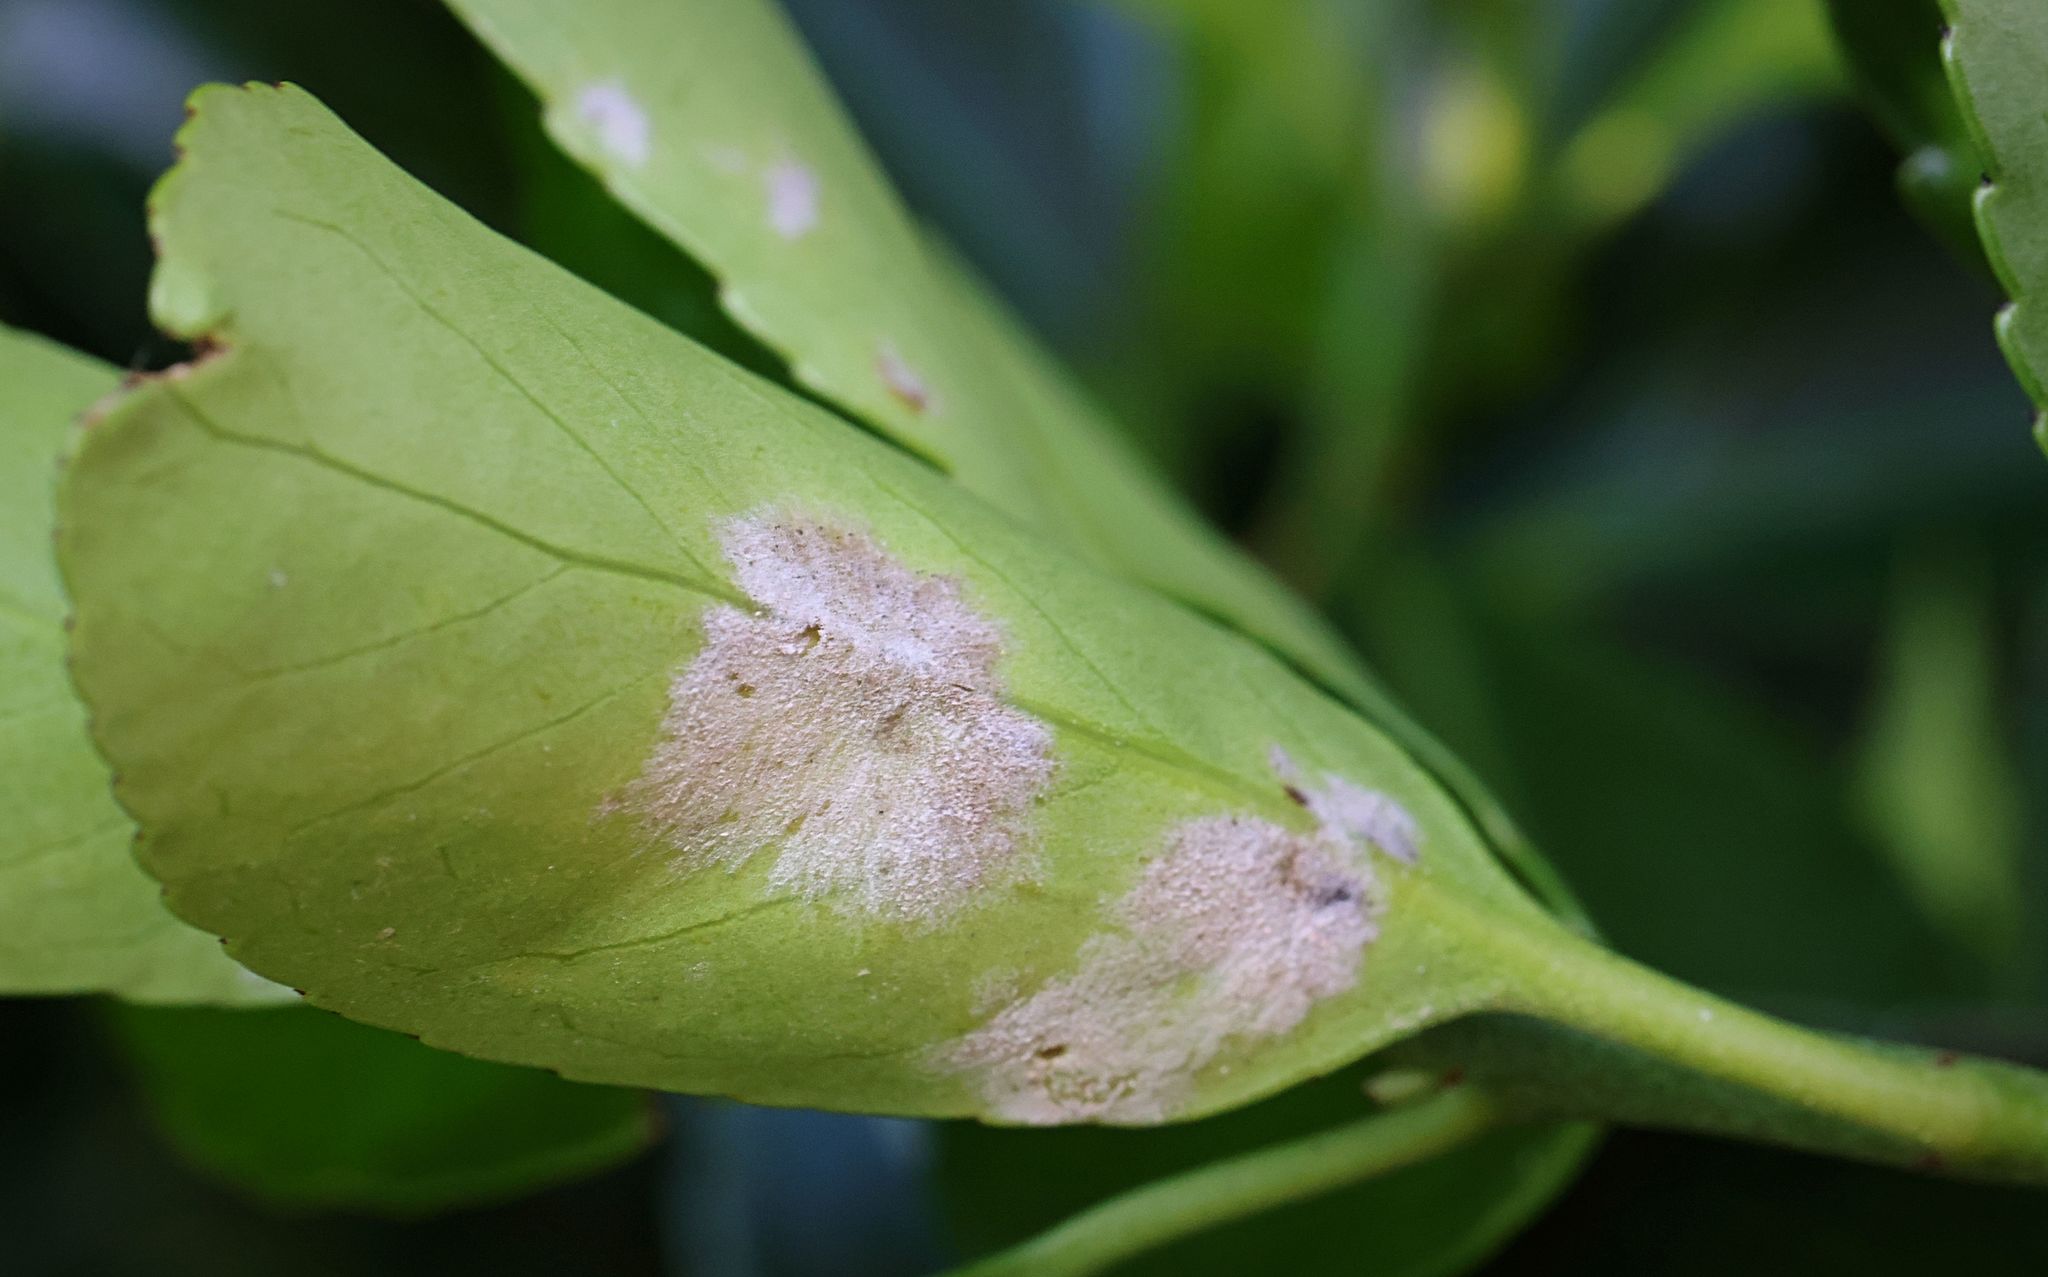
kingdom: Fungi
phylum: Ascomycota
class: Leotiomycetes
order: Helotiales
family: Erysiphaceae
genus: Erysiphe
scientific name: Erysiphe euonymicola
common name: Spindletree mildew
